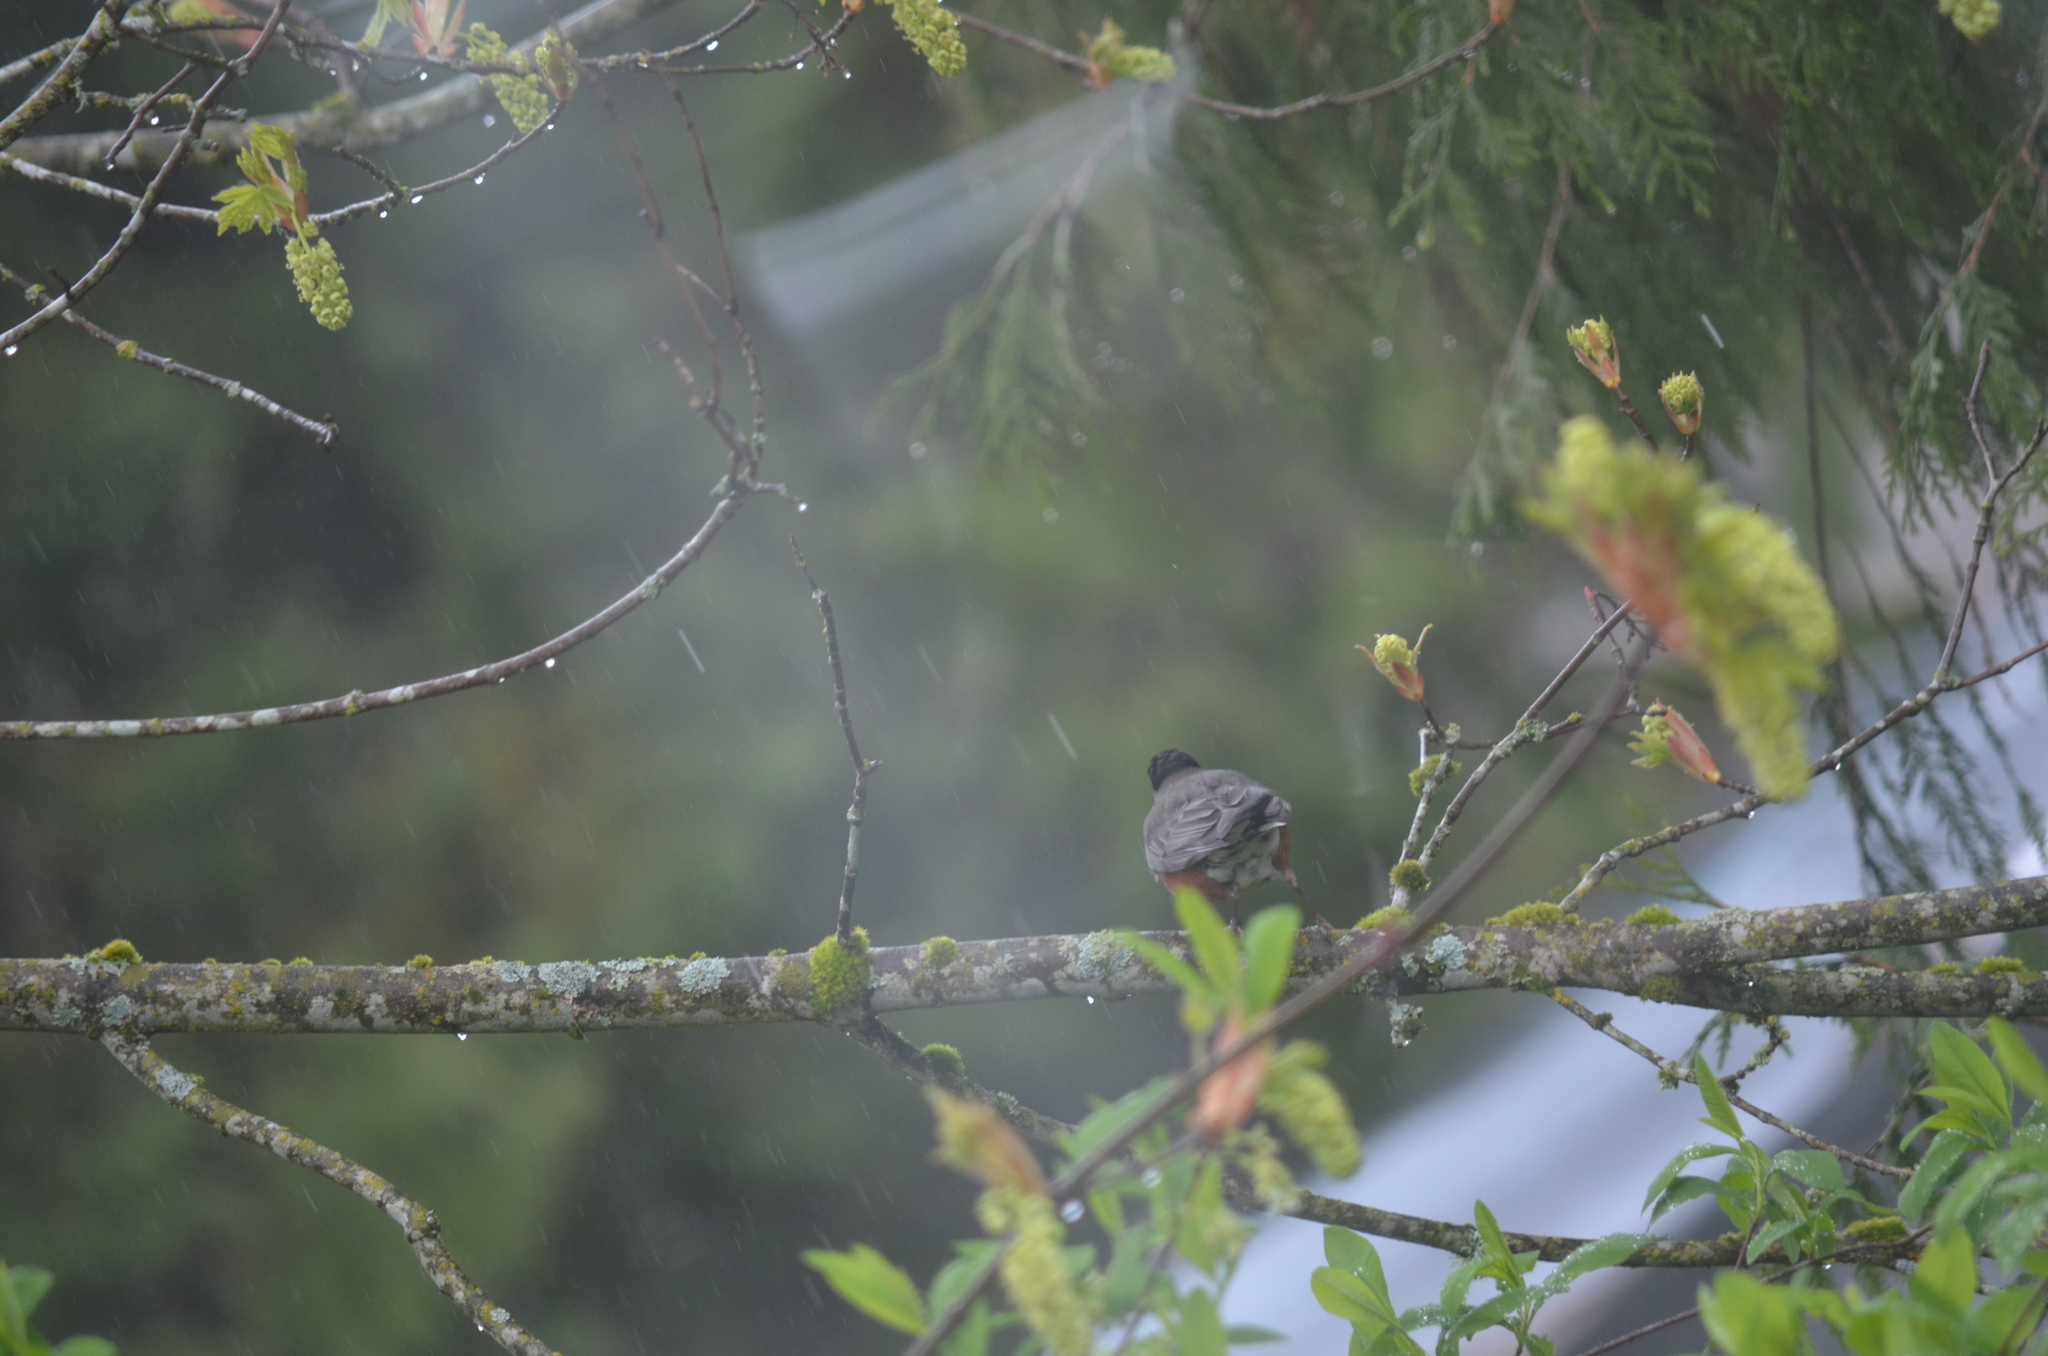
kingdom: Animalia
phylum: Chordata
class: Aves
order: Passeriformes
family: Turdidae
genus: Turdus
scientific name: Turdus migratorius
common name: American robin
